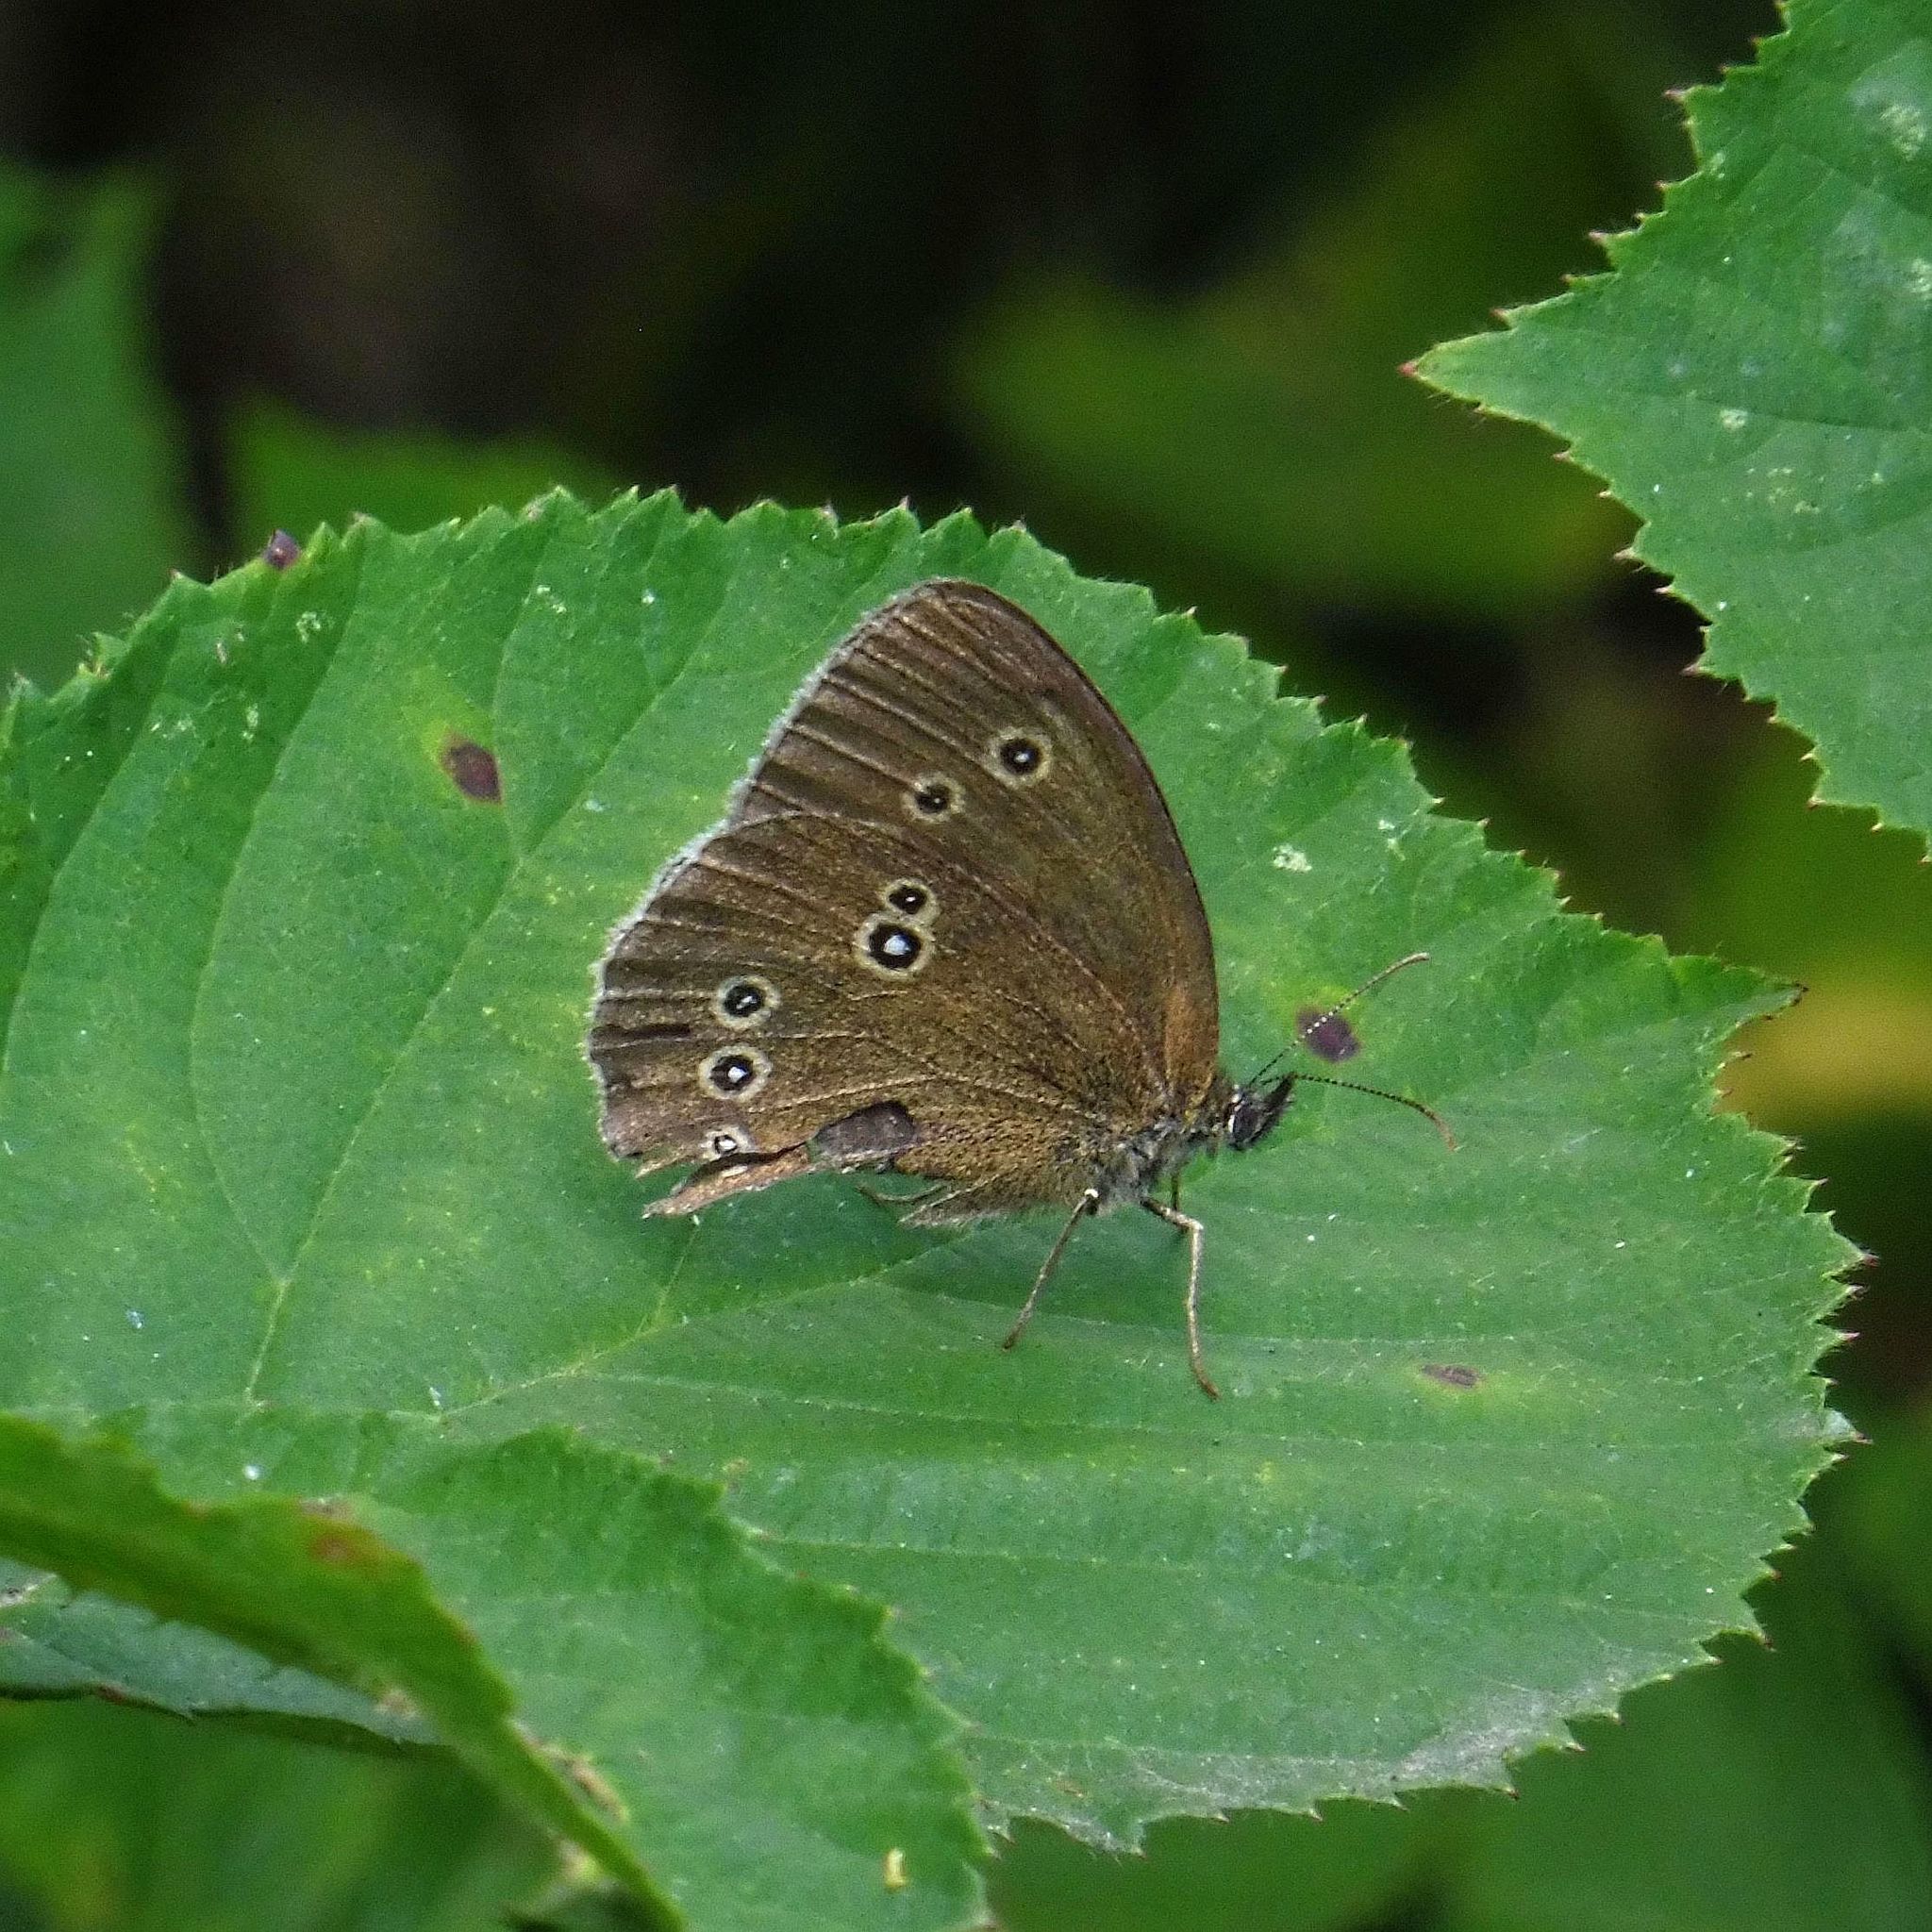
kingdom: Animalia
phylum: Arthropoda
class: Insecta
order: Lepidoptera
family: Nymphalidae
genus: Aphantopus
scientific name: Aphantopus hyperantus
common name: Ringlet
